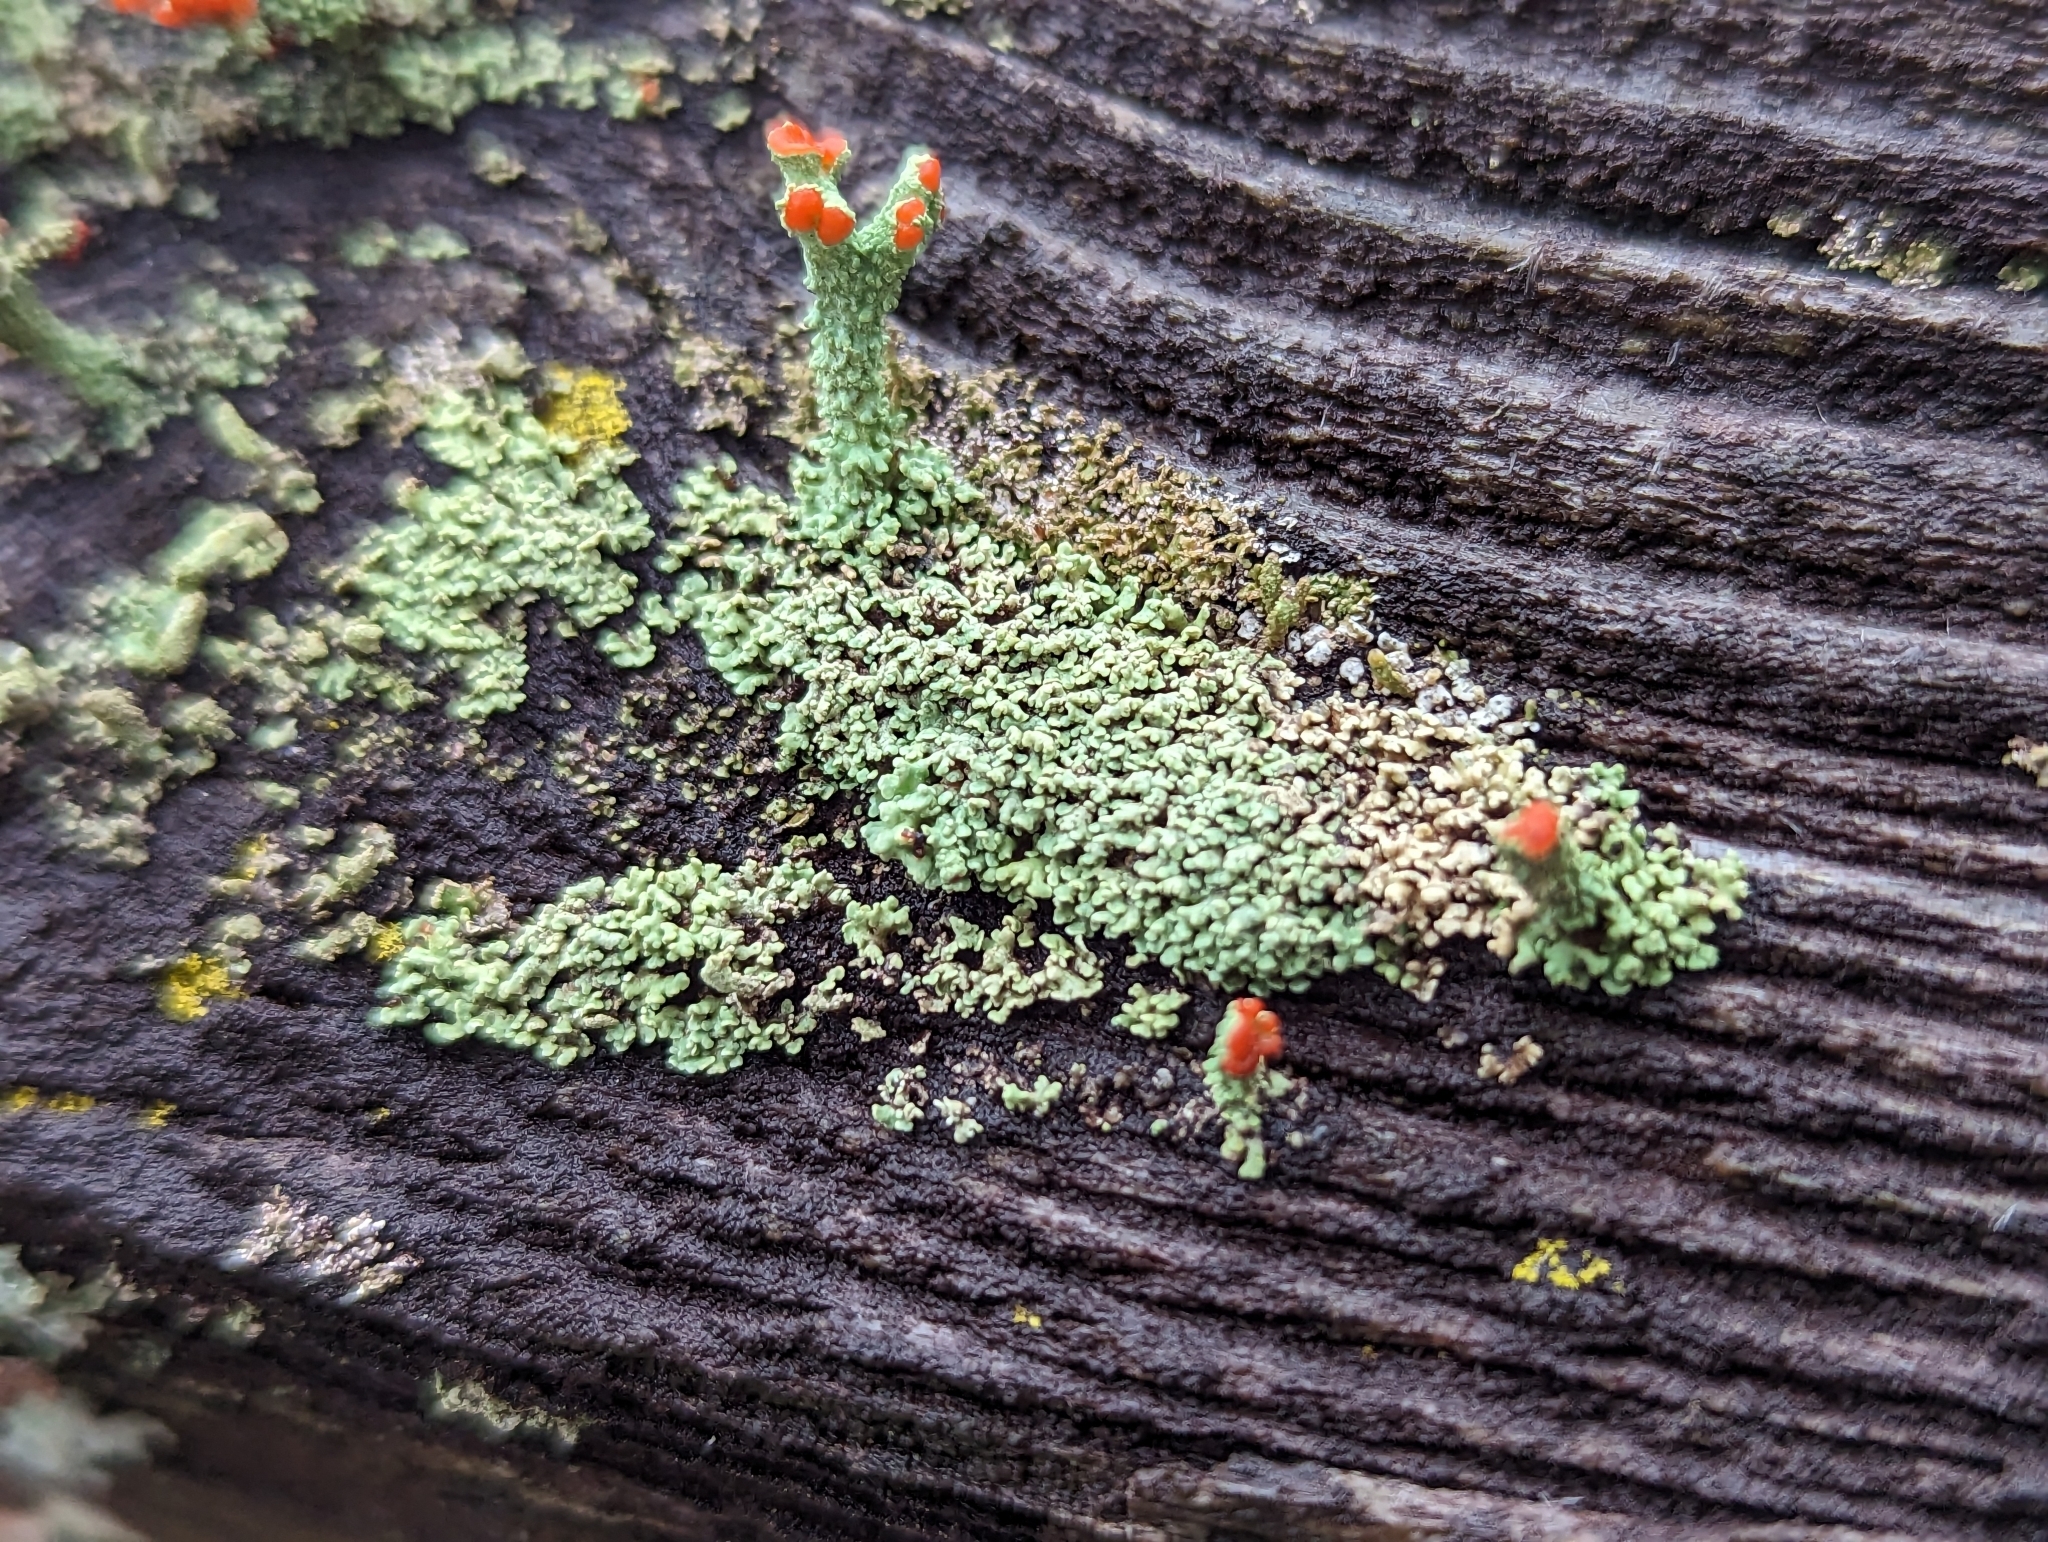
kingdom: Fungi
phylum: Ascomycota
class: Lecanoromycetes
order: Lecanorales
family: Cladoniaceae
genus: Cladonia
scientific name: Cladonia cristatella
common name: British soldier lichen
